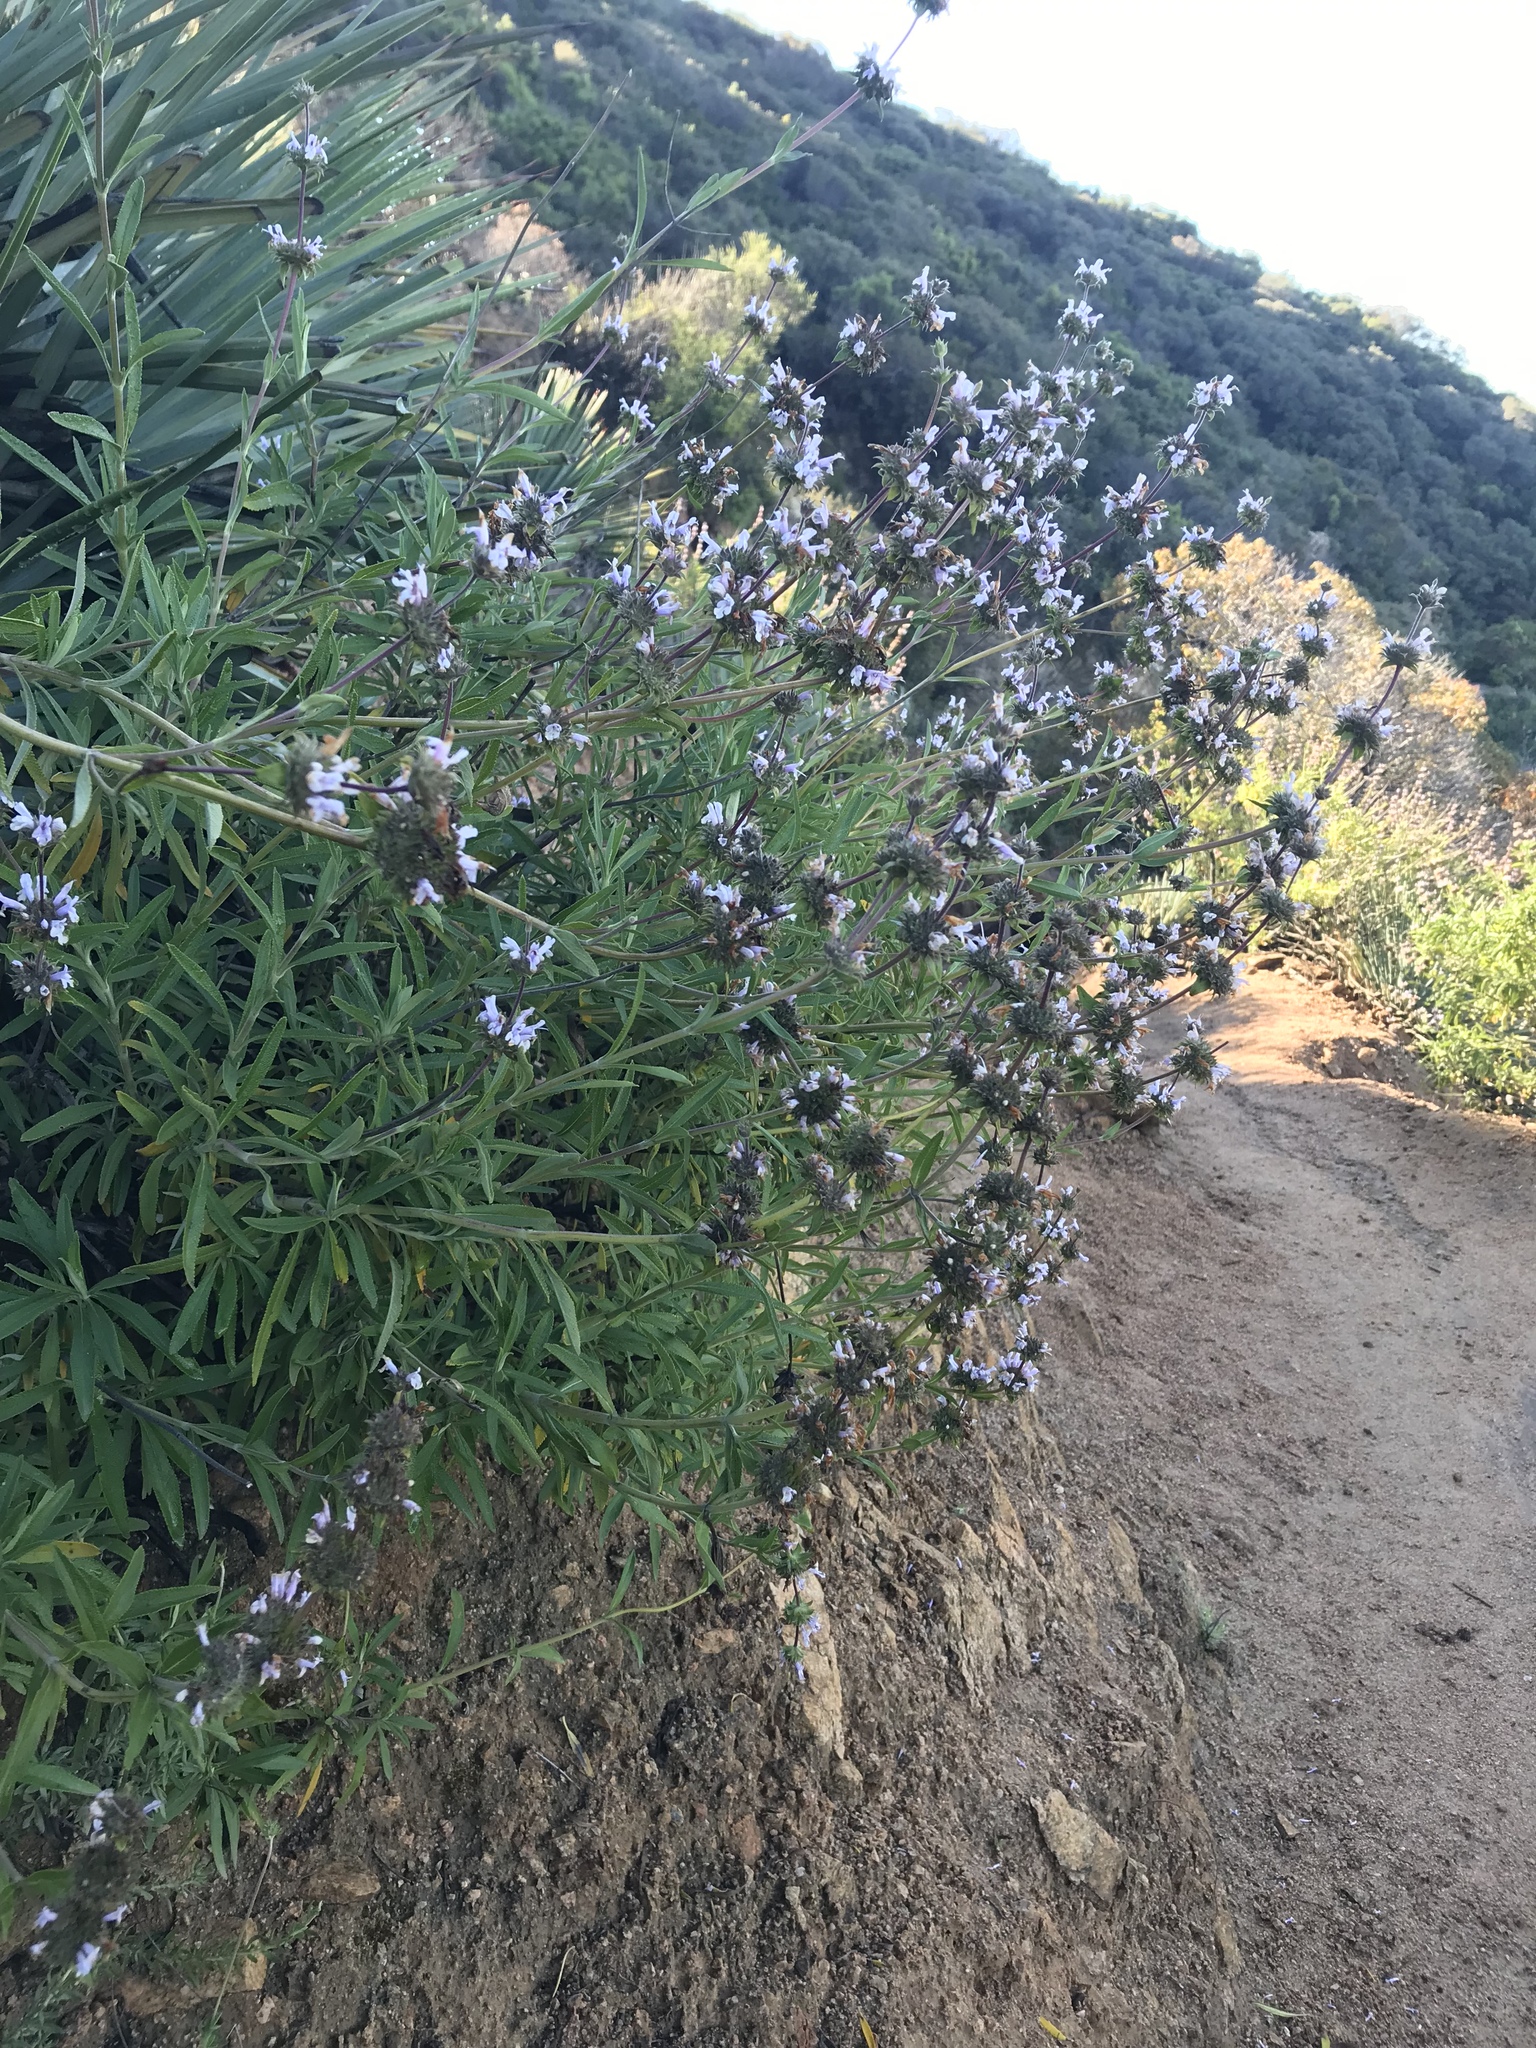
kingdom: Plantae
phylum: Tracheophyta
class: Magnoliopsida
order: Lamiales
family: Lamiaceae
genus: Salvia
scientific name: Salvia mellifera
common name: Black sage
